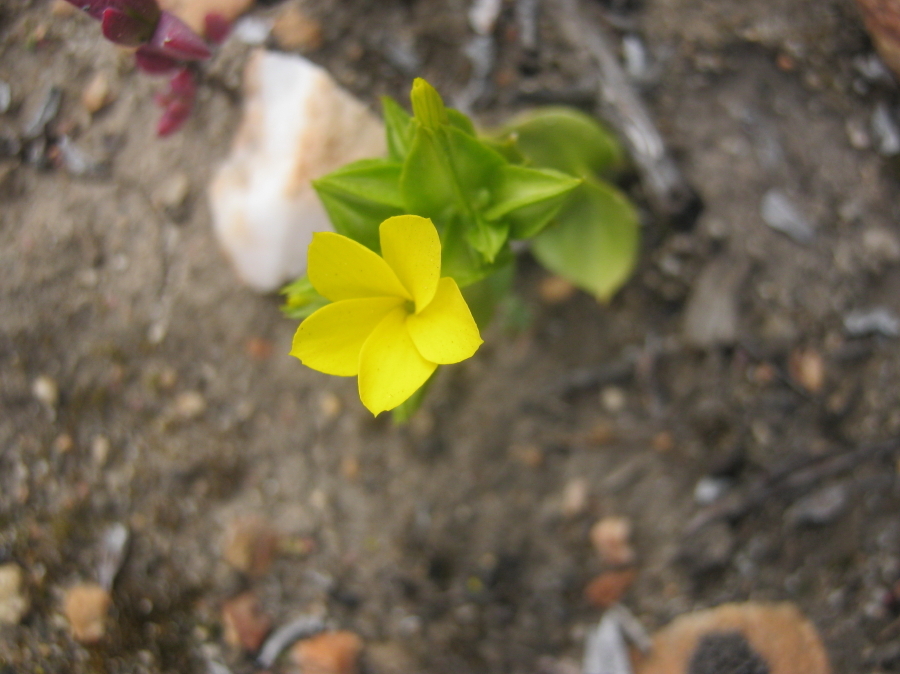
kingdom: Plantae
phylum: Tracheophyta
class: Magnoliopsida
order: Gentianales
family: Gentianaceae
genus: Sebaea
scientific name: Sebaea exacoides
